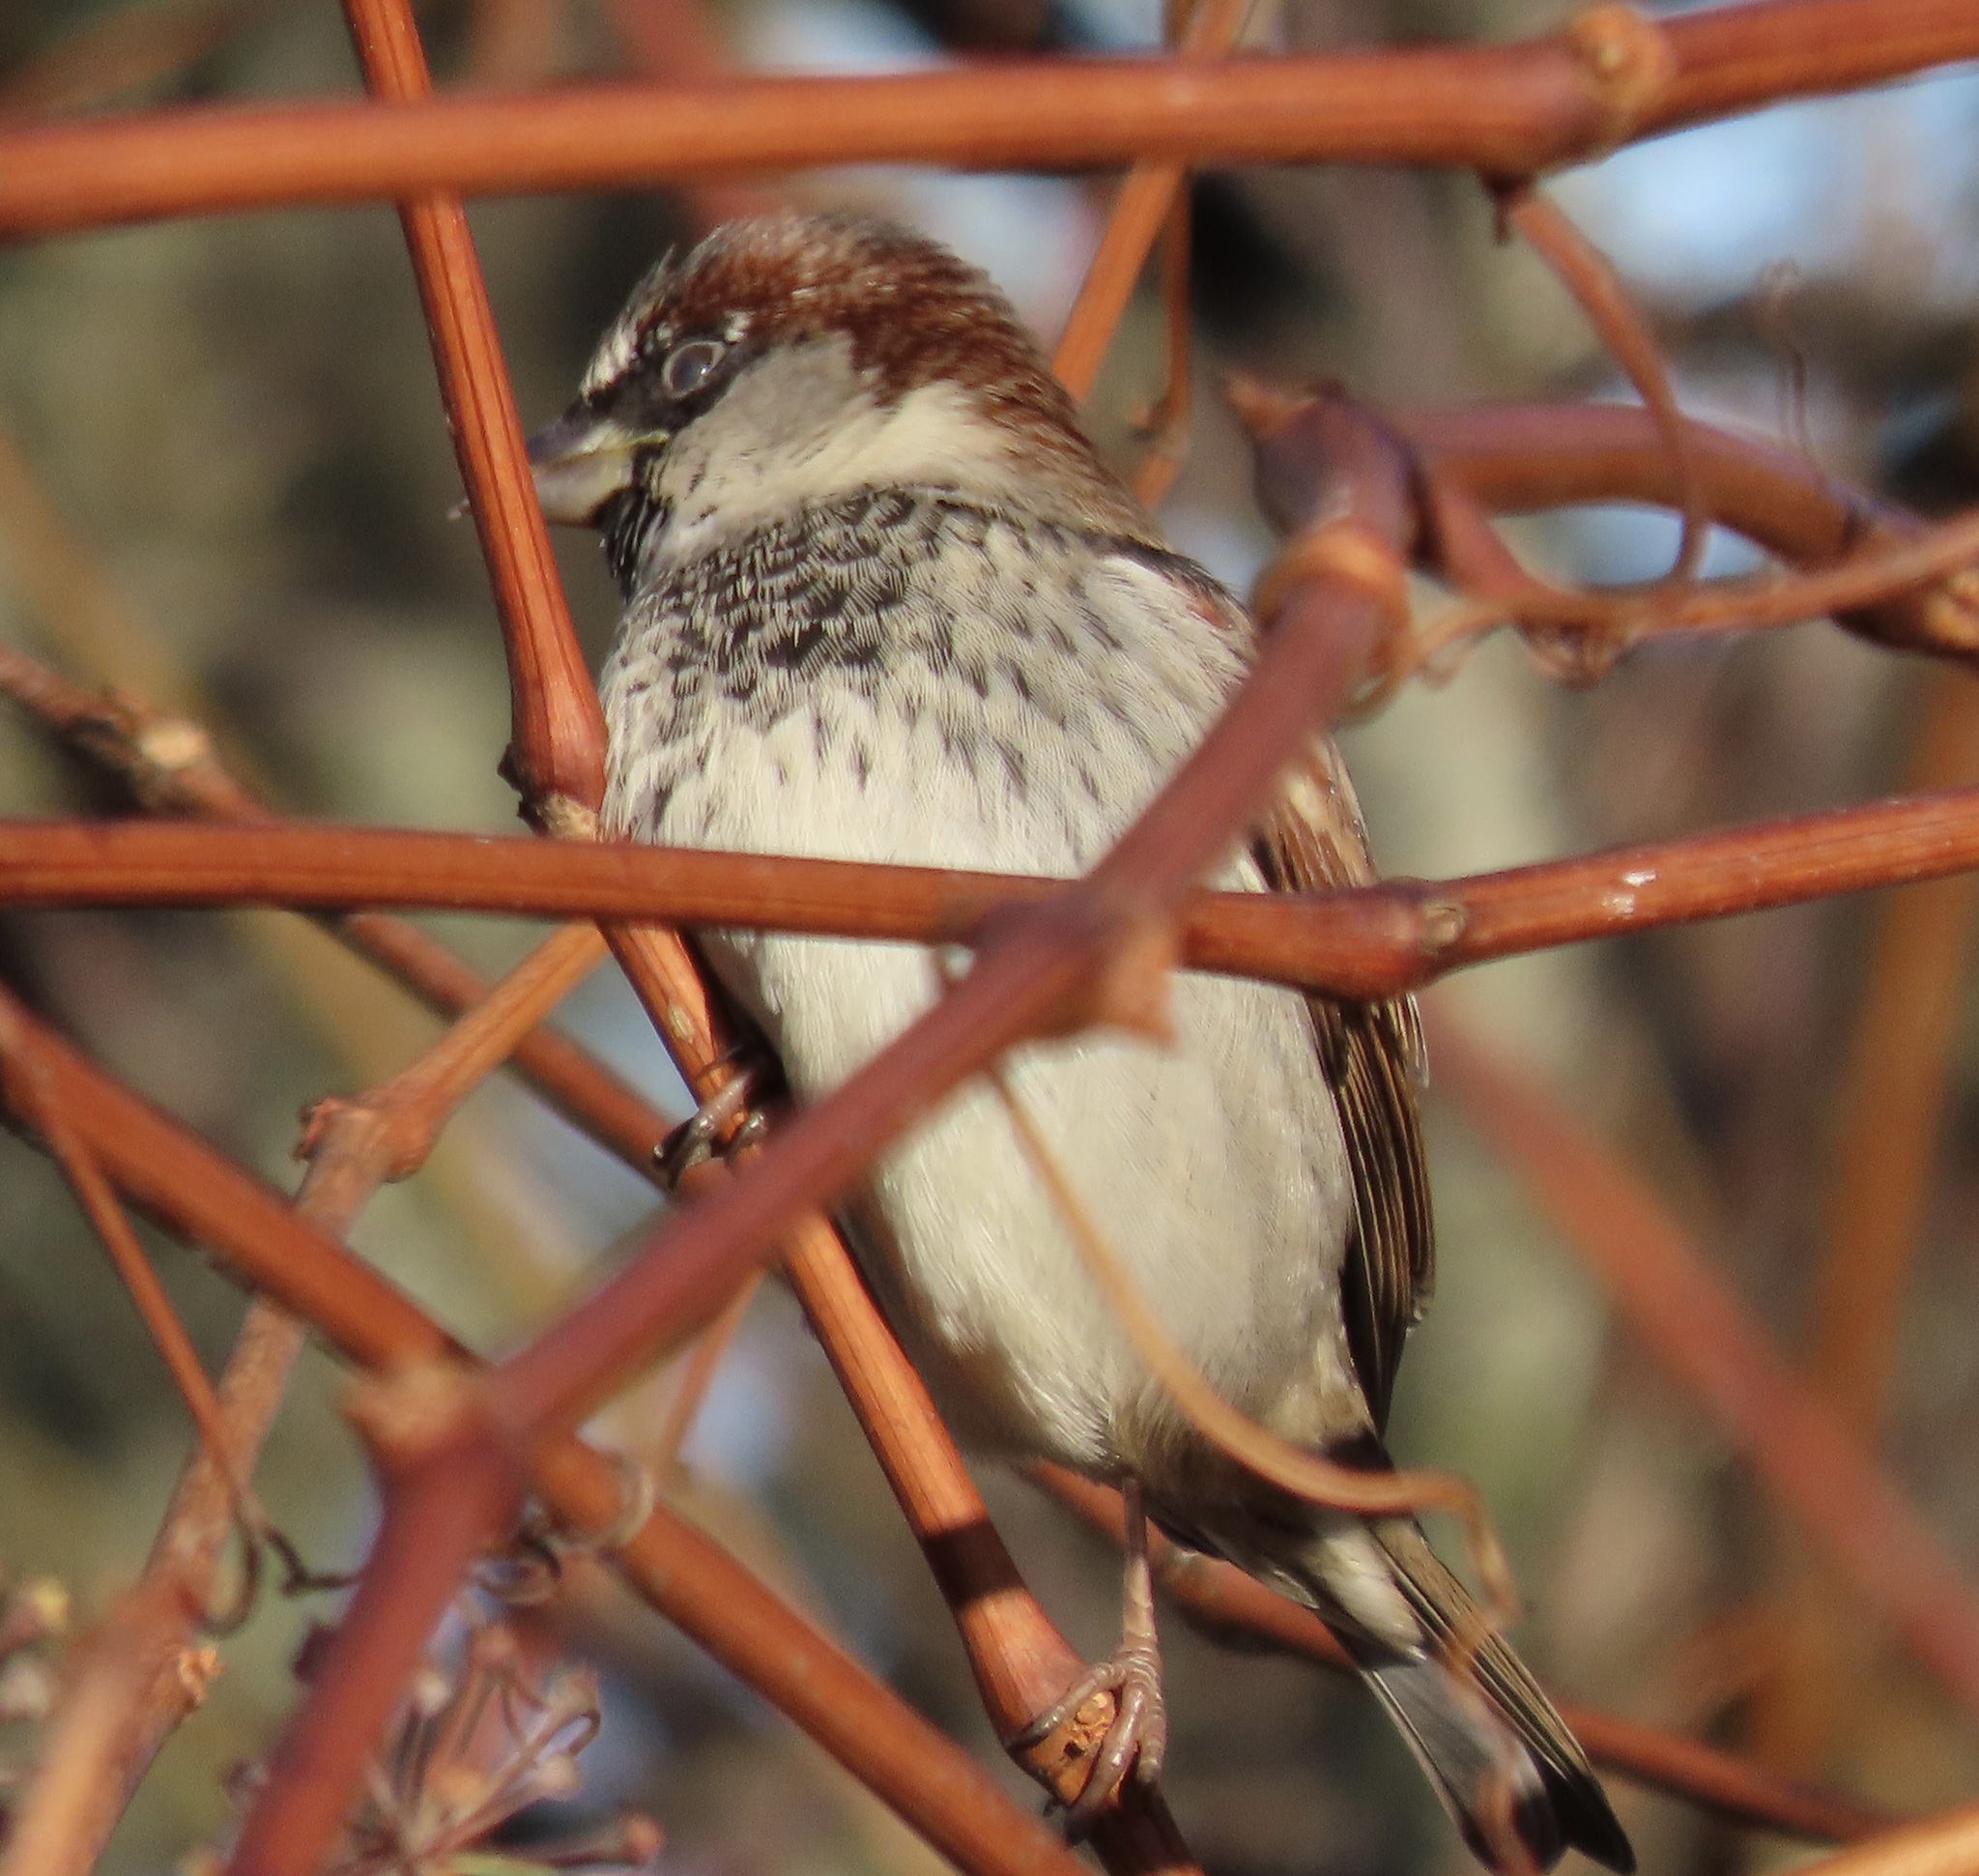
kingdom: Animalia
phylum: Chordata
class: Aves
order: Passeriformes
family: Passeridae
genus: Passer
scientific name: Passer domesticus
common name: House sparrow
